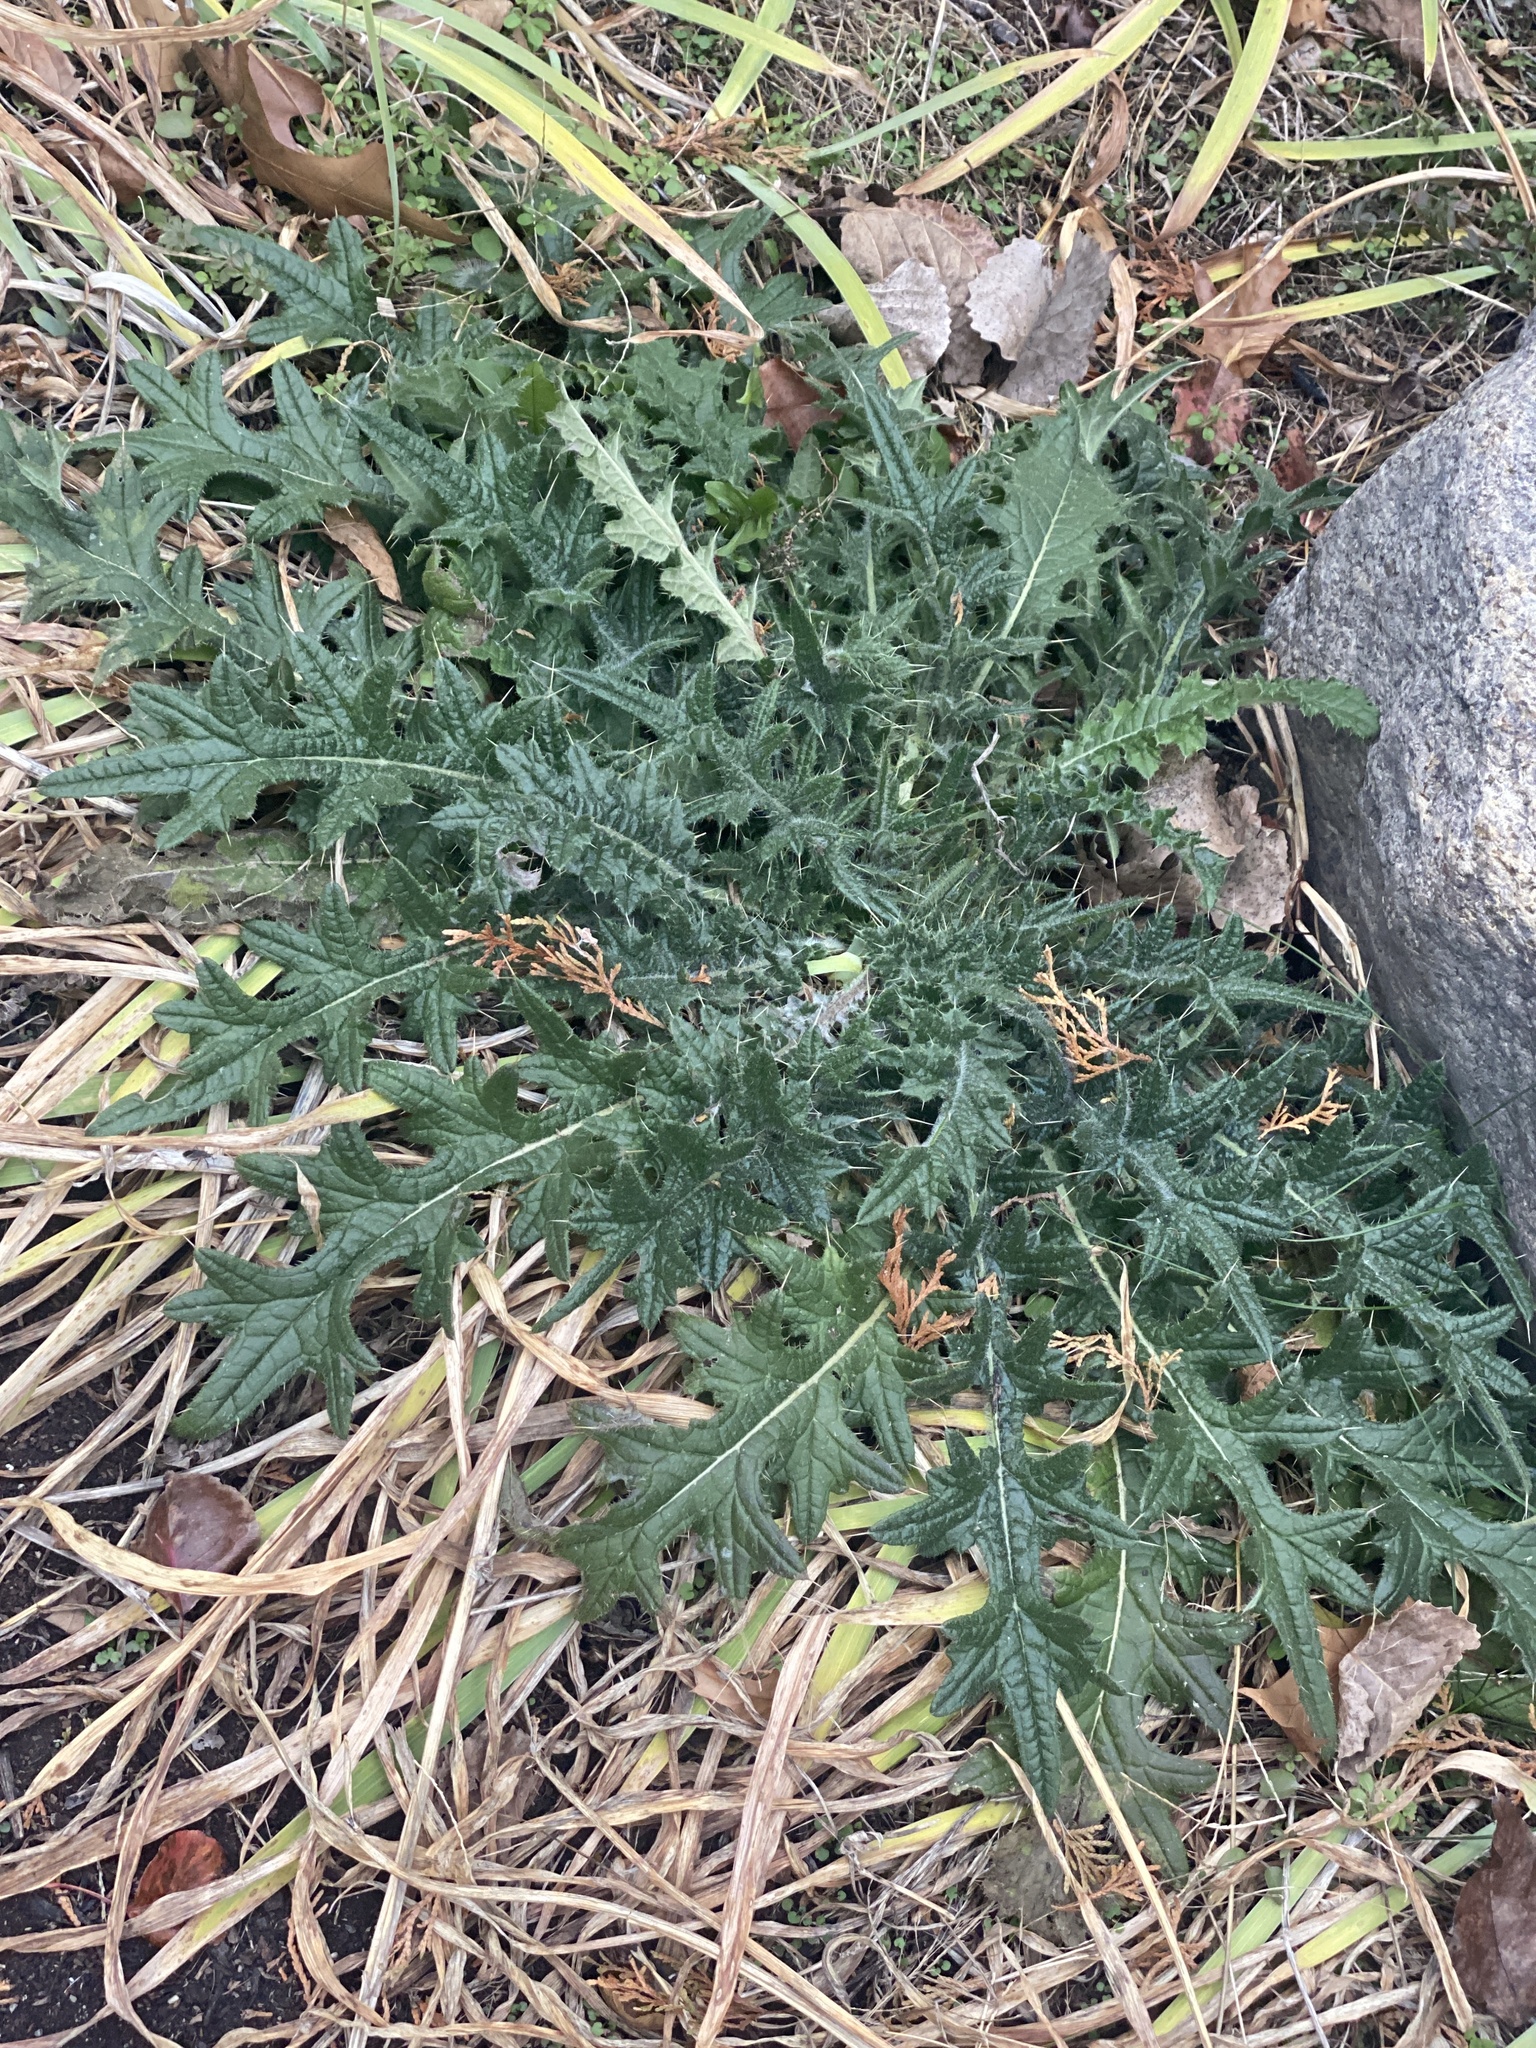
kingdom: Plantae
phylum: Tracheophyta
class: Magnoliopsida
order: Asterales
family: Asteraceae
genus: Cirsium
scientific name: Cirsium vulgare
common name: Bull thistle
